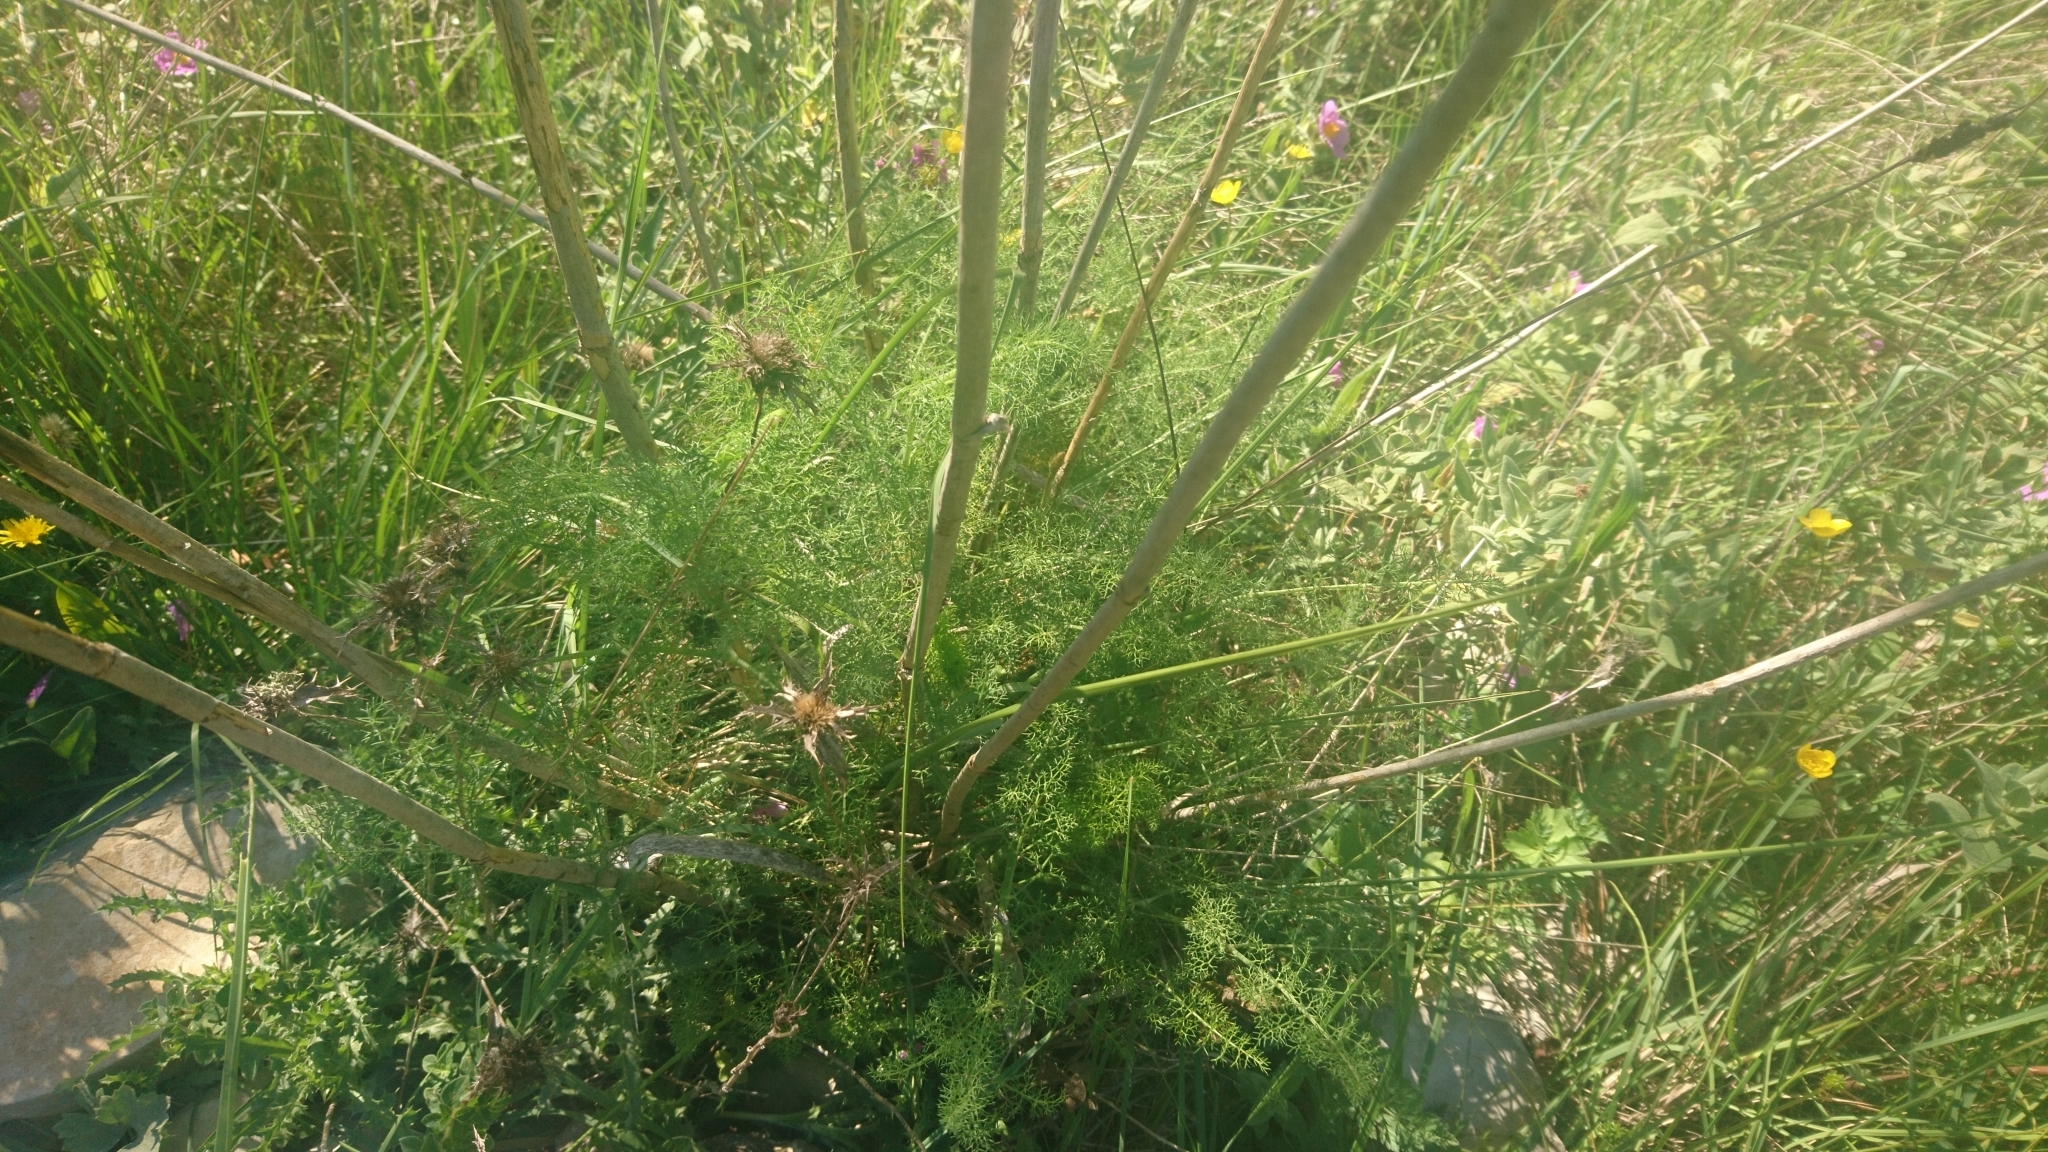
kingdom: Plantae
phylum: Tracheophyta
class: Magnoliopsida
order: Apiales
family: Apiaceae
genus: Foeniculum
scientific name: Foeniculum vulgare
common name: Fennel
